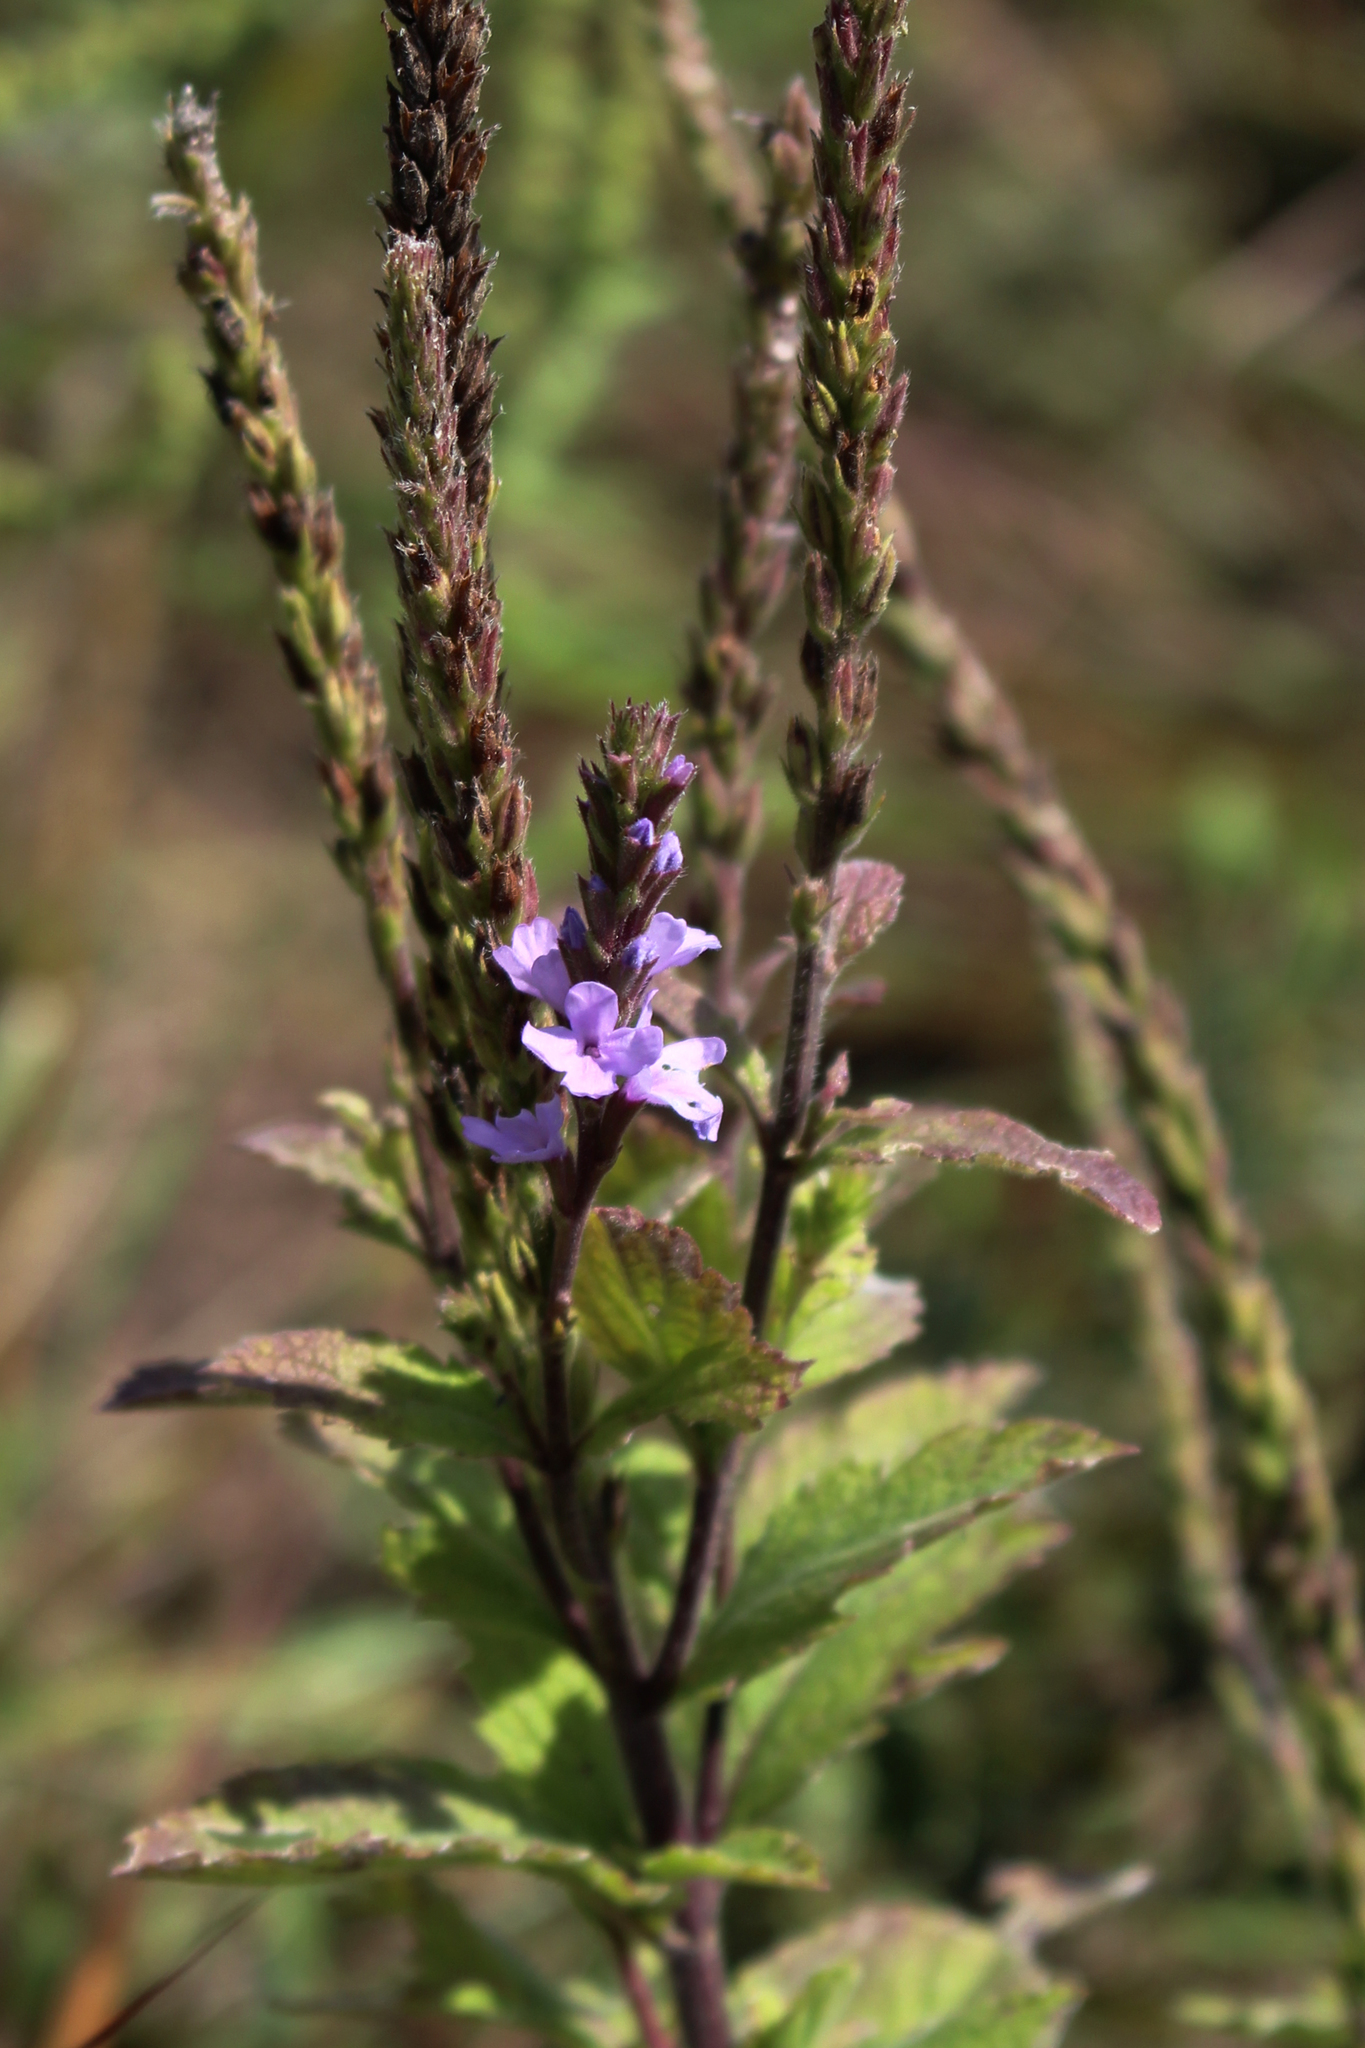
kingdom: Plantae
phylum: Tracheophyta
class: Magnoliopsida
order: Lamiales
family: Verbenaceae
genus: Verbena
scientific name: Verbena stricta
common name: Hoary vervain
